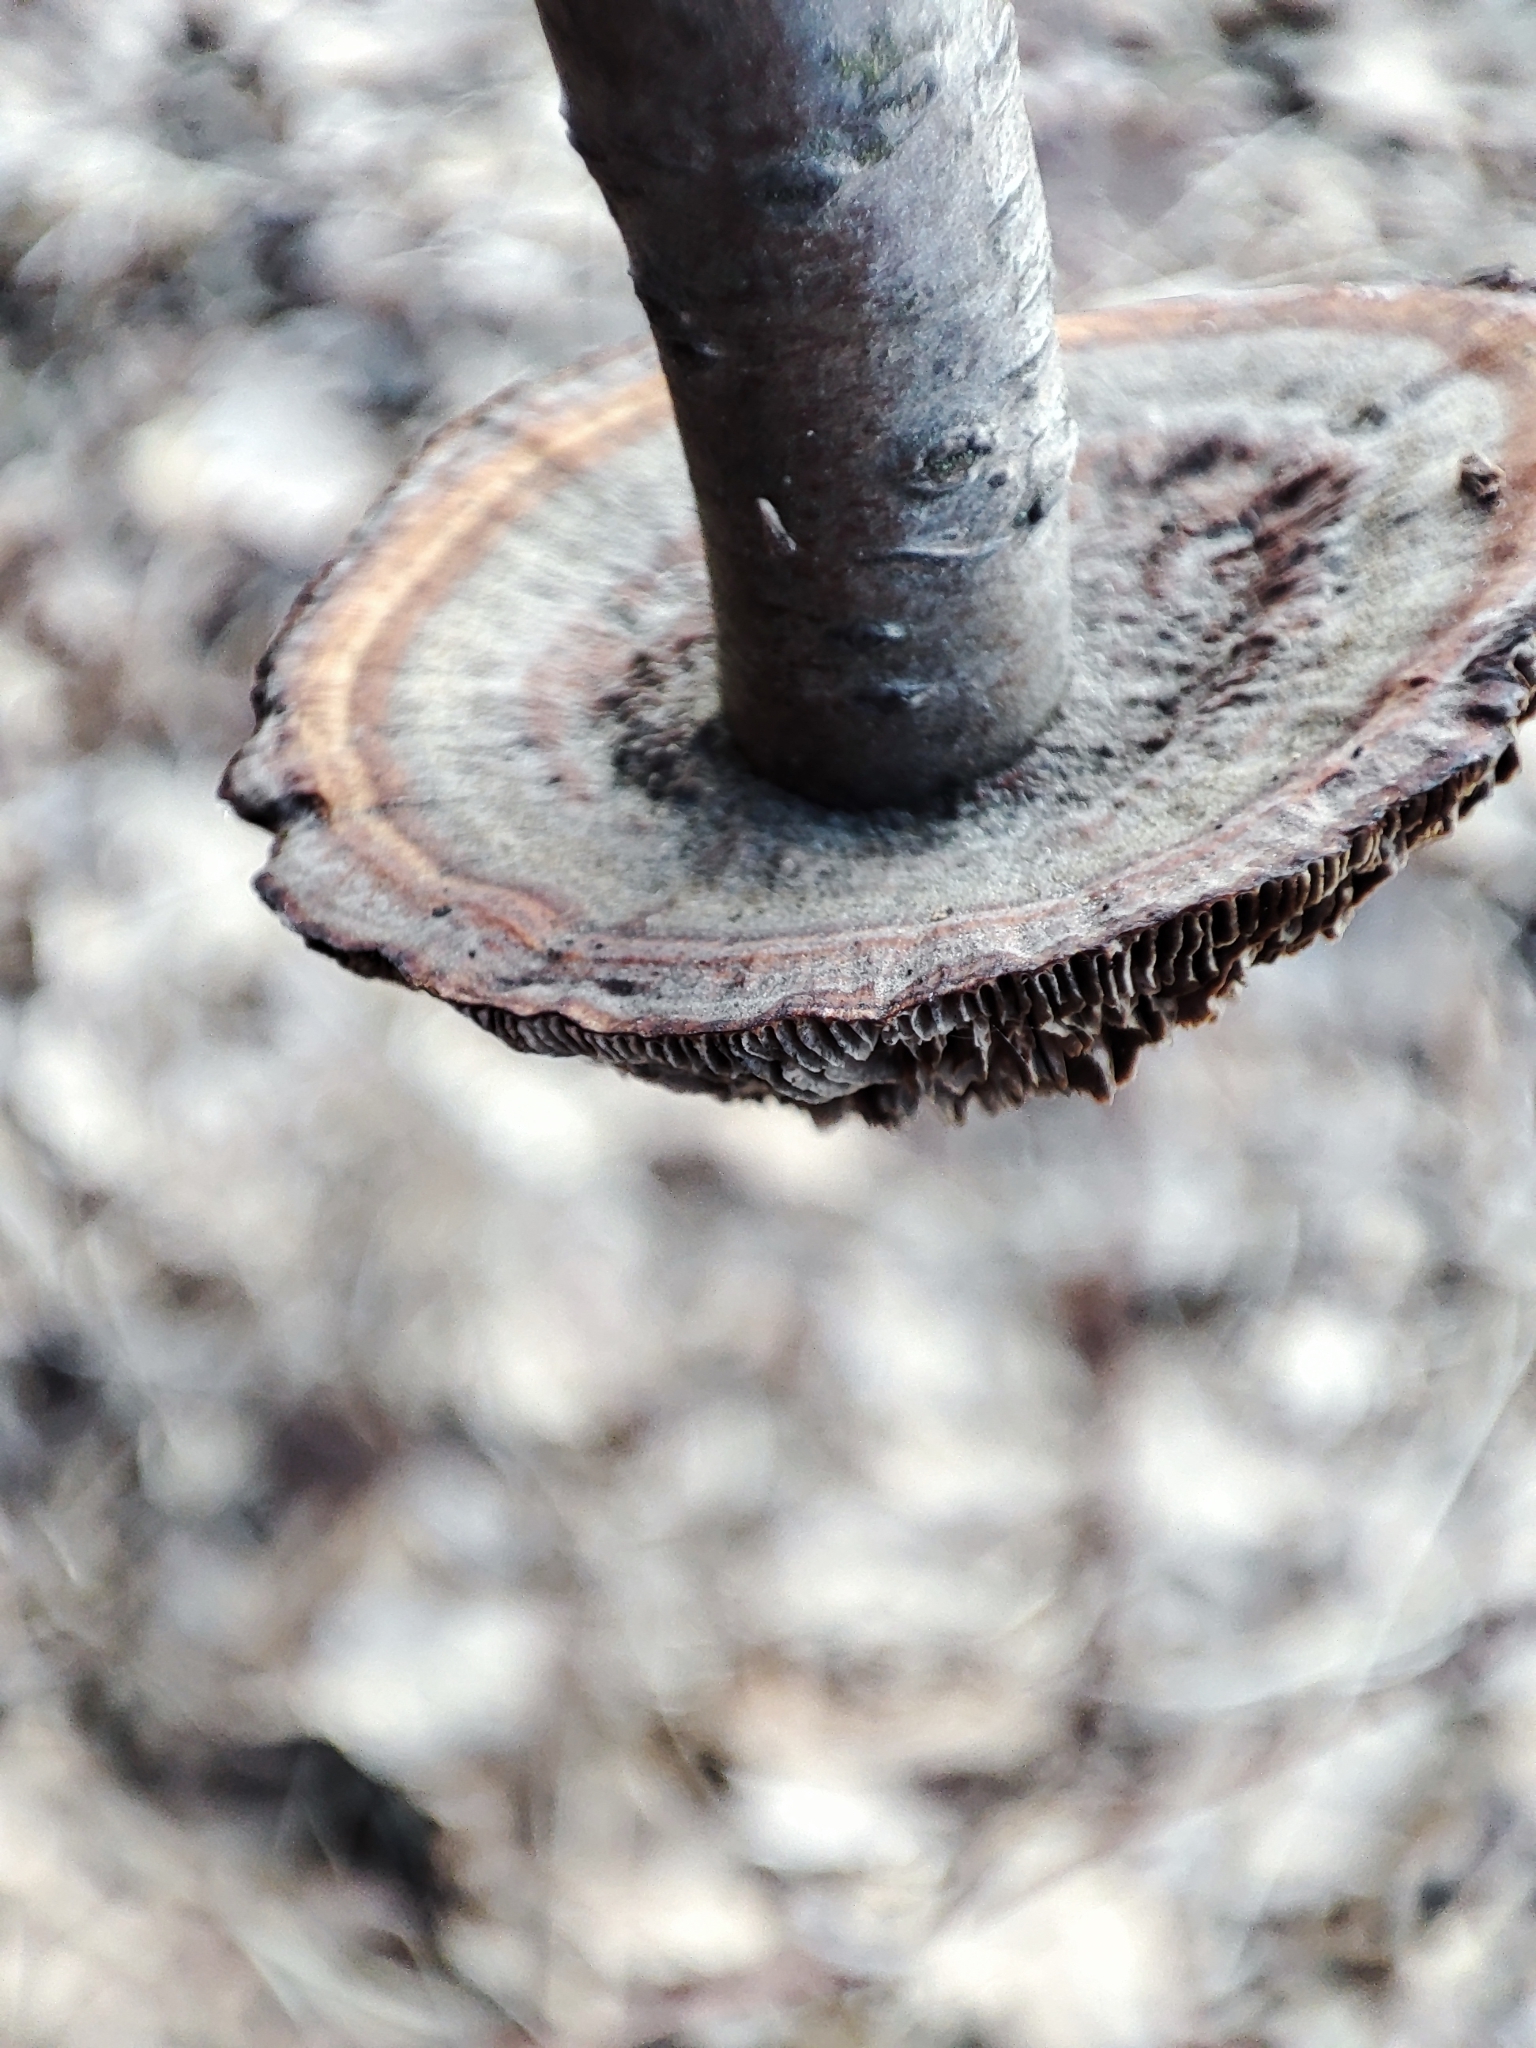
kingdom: Fungi
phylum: Basidiomycota
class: Agaricomycetes
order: Polyporales
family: Polyporaceae
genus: Lenzites
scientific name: Lenzites betulinus
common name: Birch mazegill
